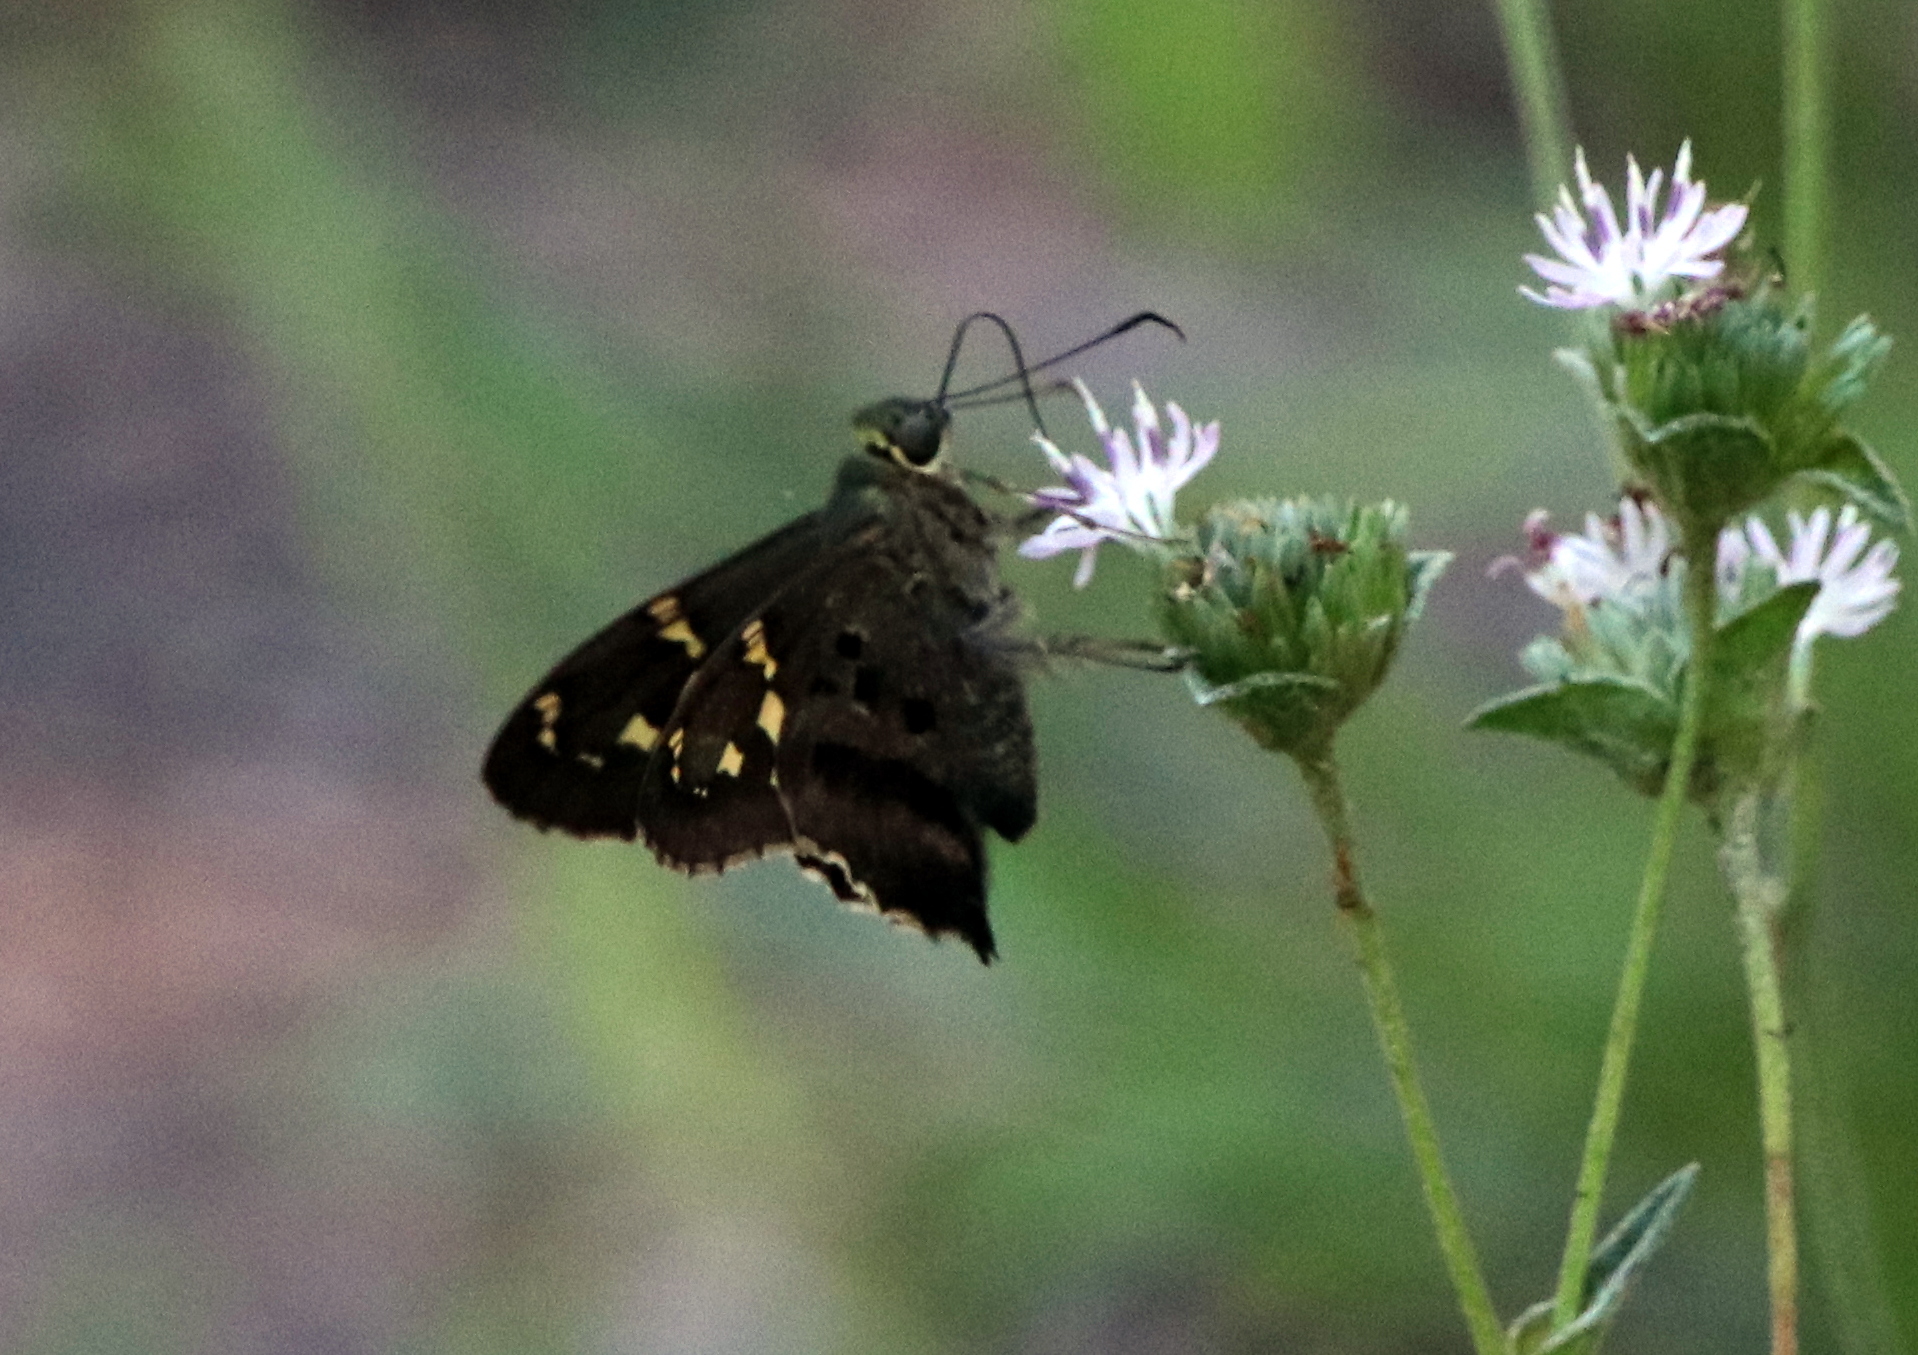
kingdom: Animalia
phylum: Arthropoda
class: Insecta
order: Lepidoptera
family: Hesperiidae
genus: Urbanus
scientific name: Urbanus proteus
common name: Long-tailed skipper
